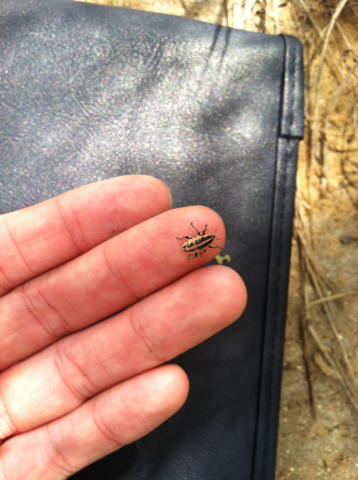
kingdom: Animalia
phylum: Arthropoda
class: Insecta
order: Coleoptera
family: Curculionidae
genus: Eudiagogus
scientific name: Eudiagogus rosenschoeldi
